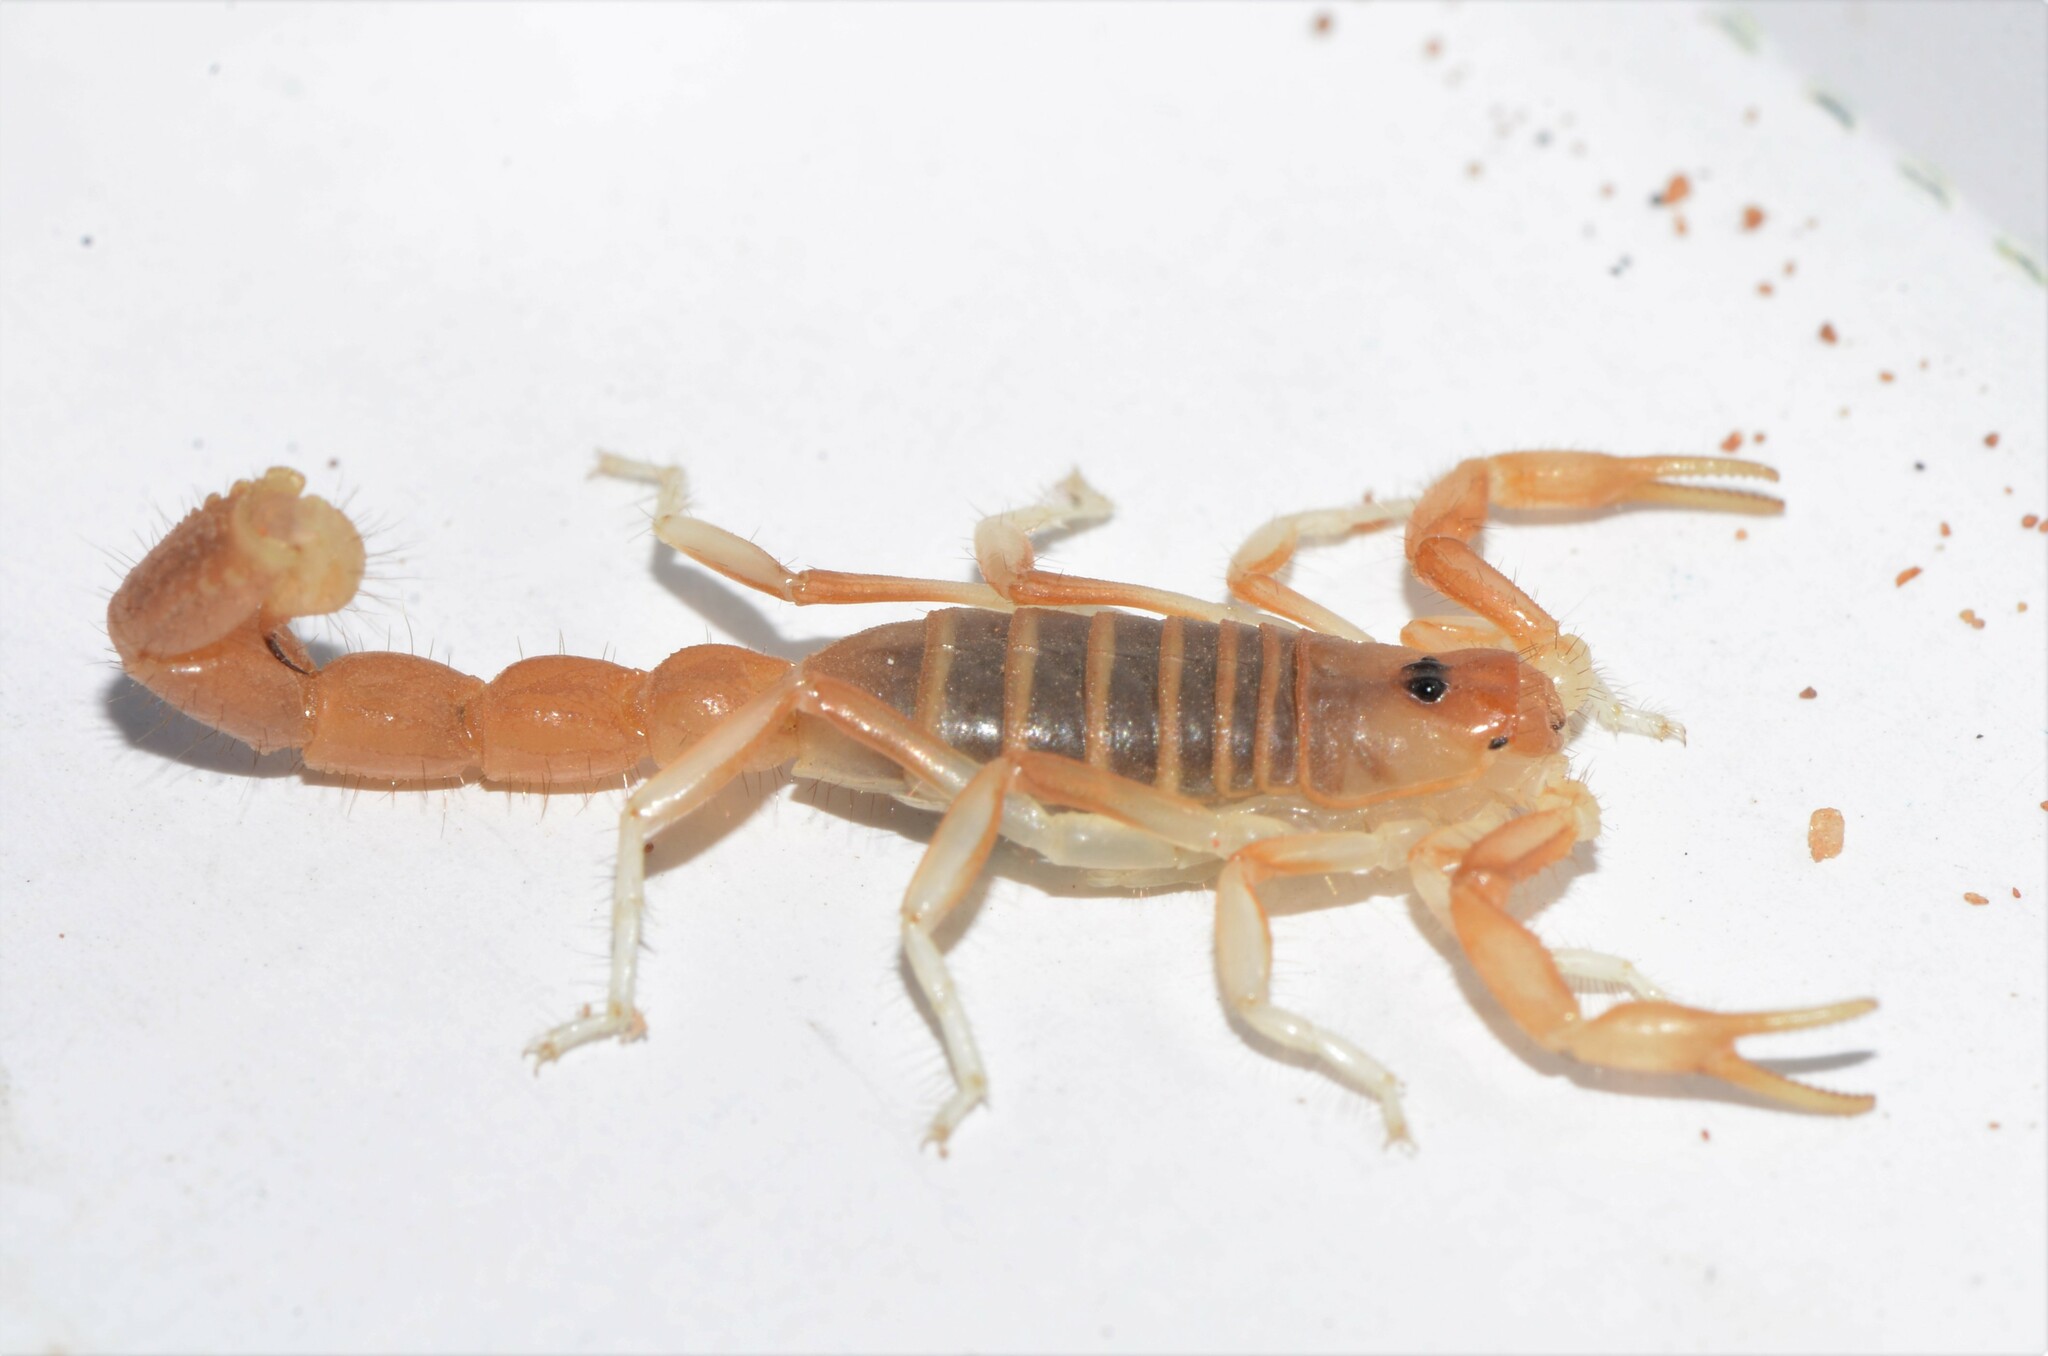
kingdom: Animalia
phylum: Arthropoda
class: Arachnida
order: Scorpiones
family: Buthidae
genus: Parabuthus
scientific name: Parabuthus brevimanus
